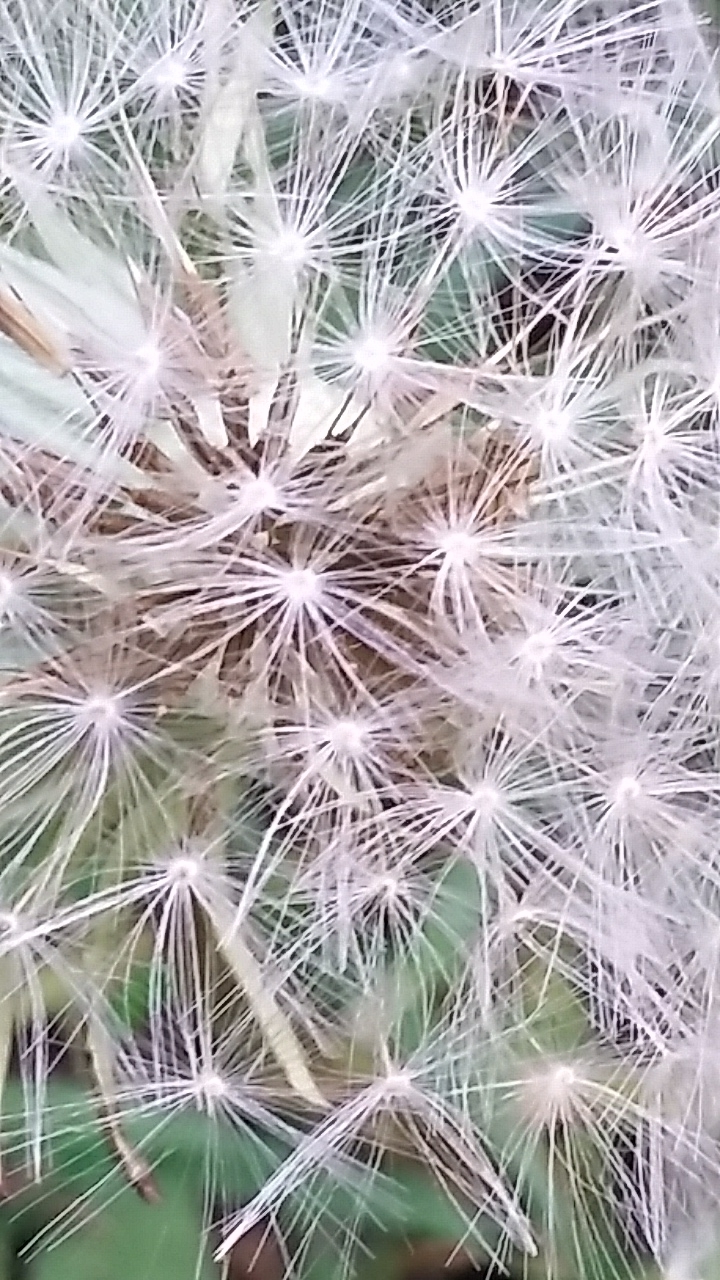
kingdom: Plantae
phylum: Tracheophyta
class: Magnoliopsida
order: Asterales
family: Asteraceae
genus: Taraxacum
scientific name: Taraxacum officinale
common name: Common dandelion
